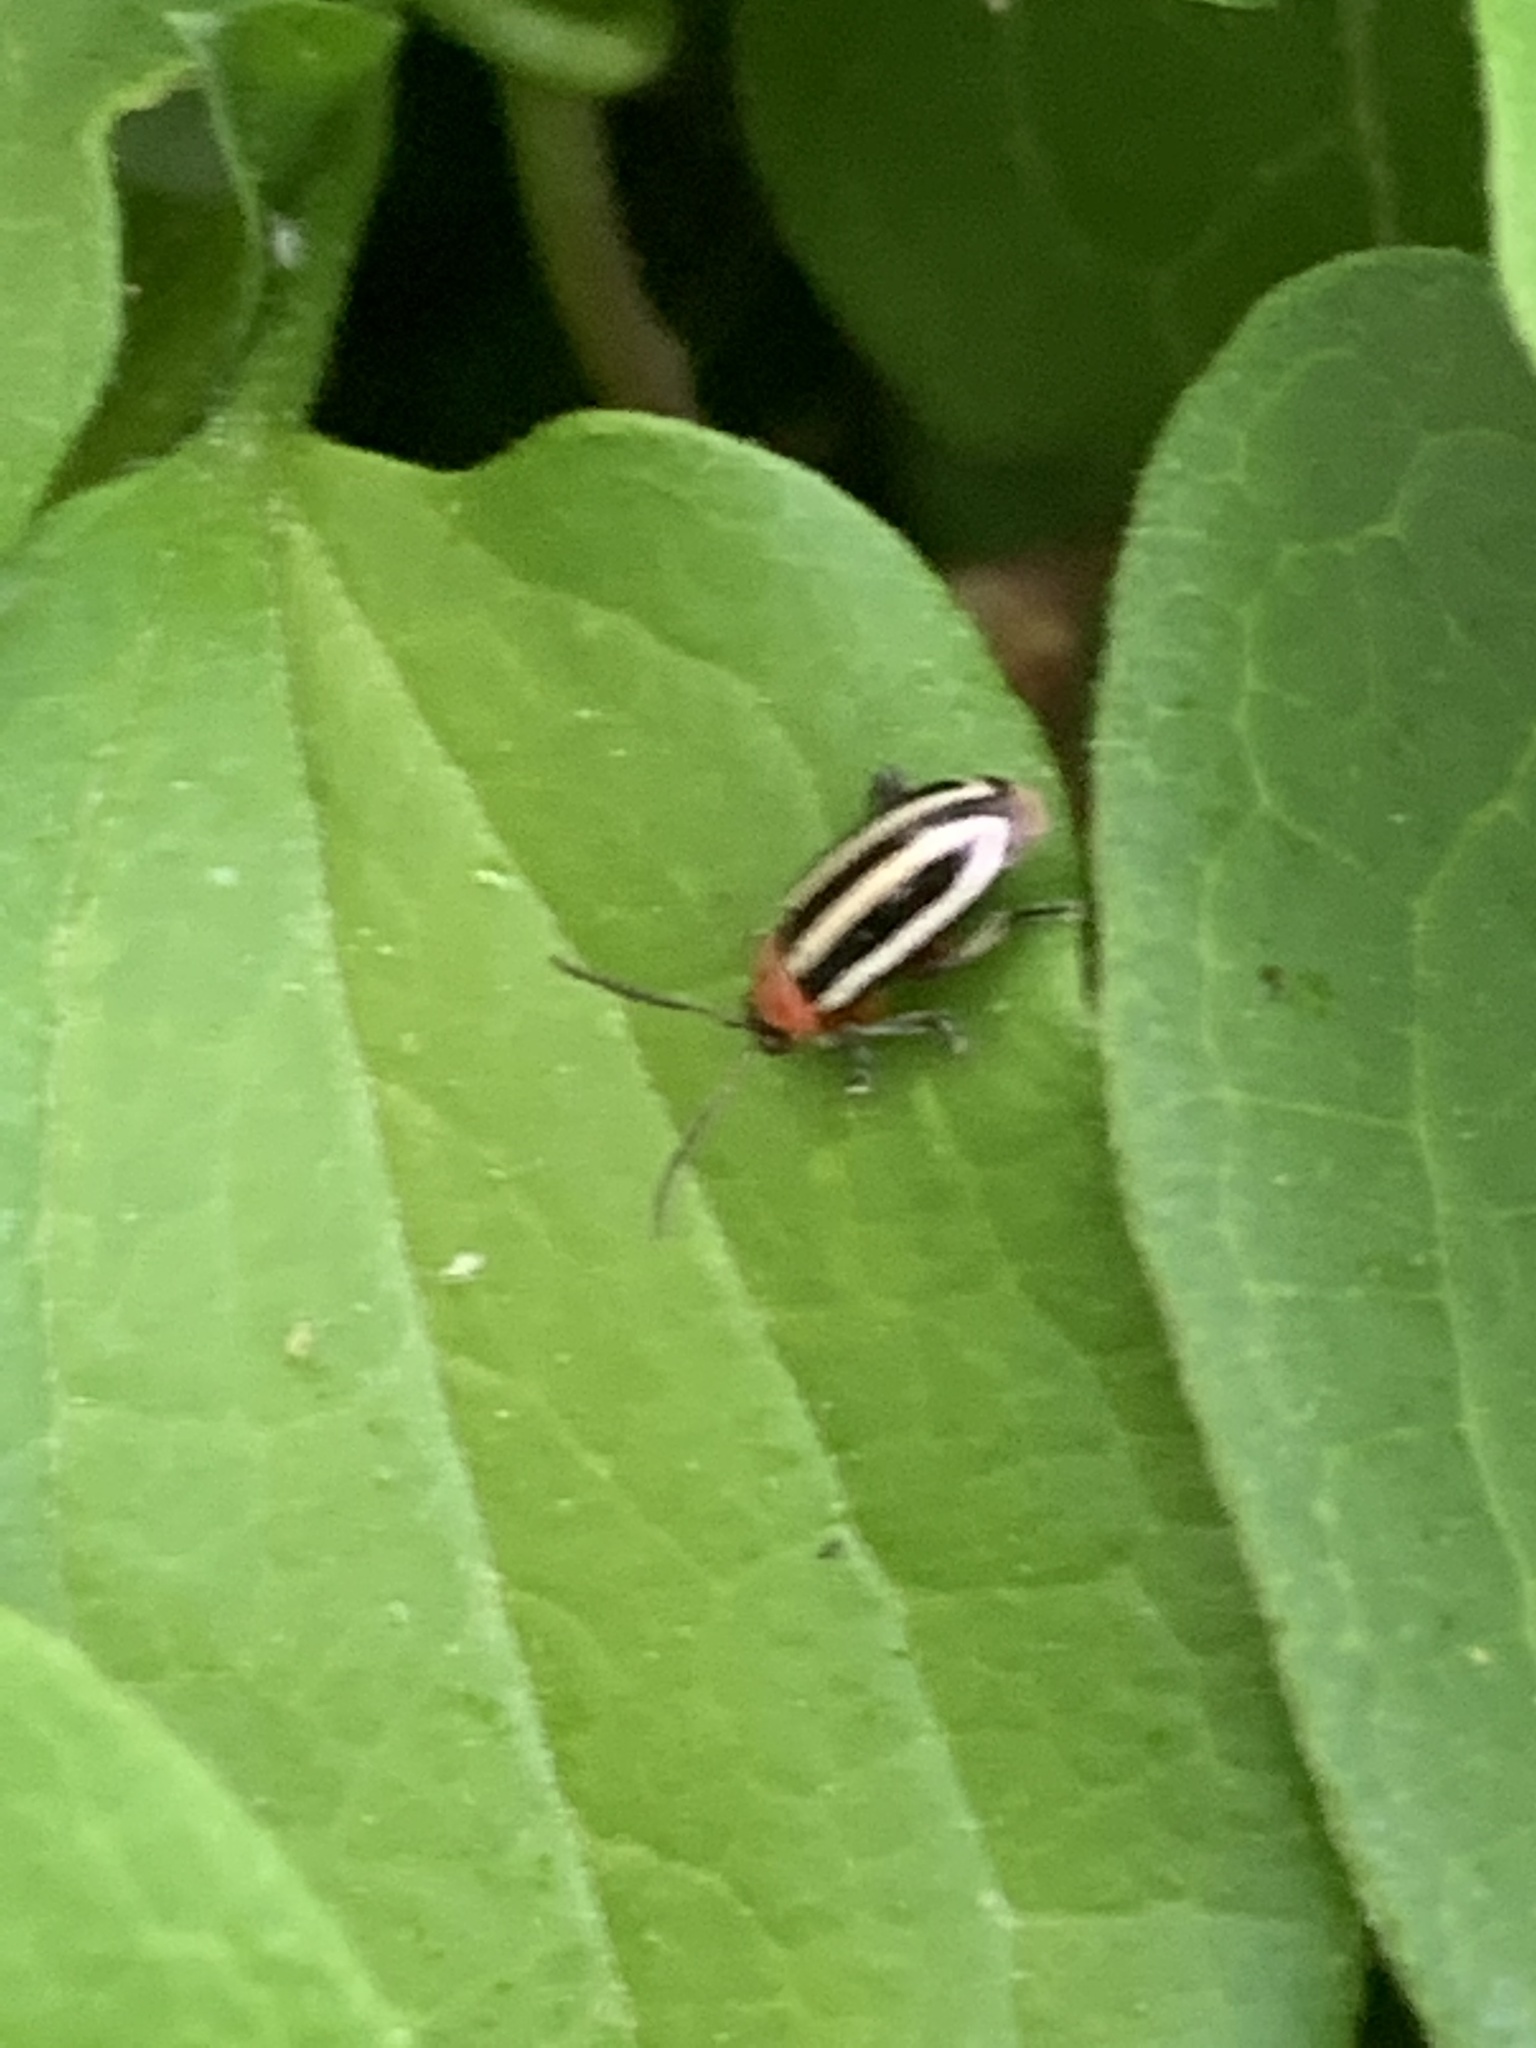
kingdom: Animalia
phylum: Arthropoda
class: Insecta
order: Coleoptera
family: Chrysomelidae
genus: Disonycha
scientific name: Disonycha glabrata
